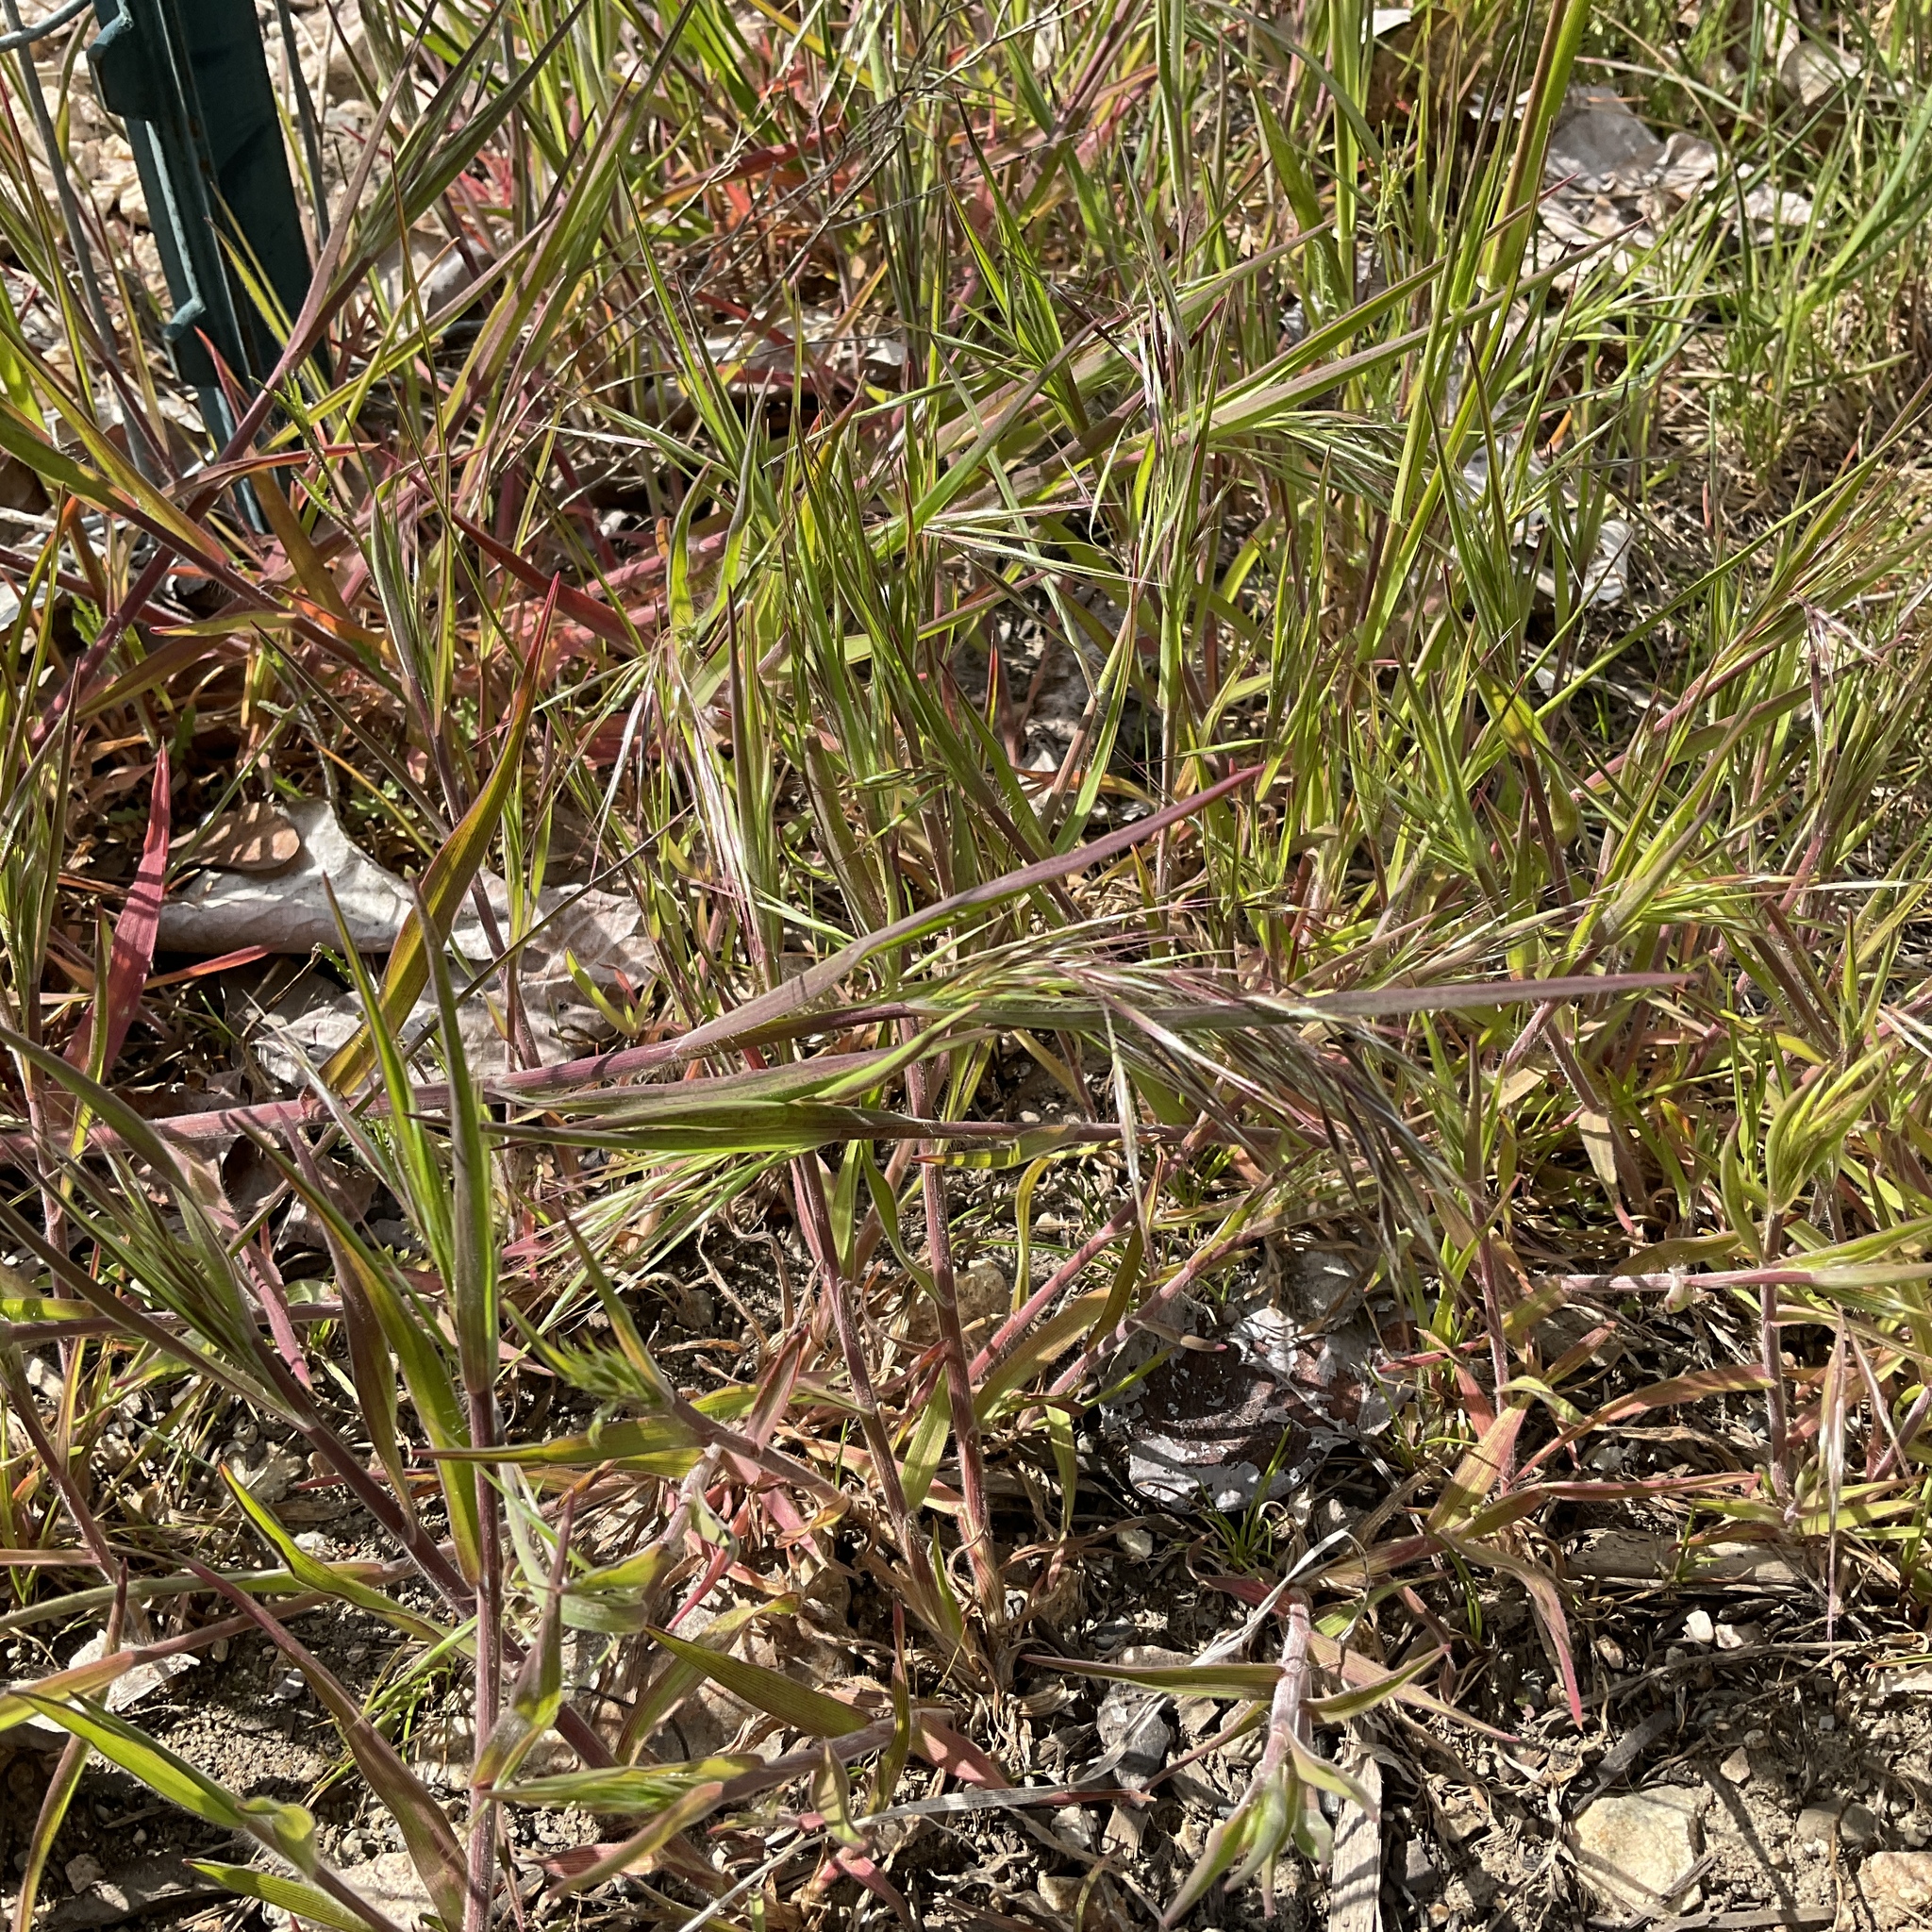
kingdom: Plantae
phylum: Tracheophyta
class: Liliopsida
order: Poales
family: Poaceae
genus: Bromus
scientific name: Bromus tectorum
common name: Cheatgrass
